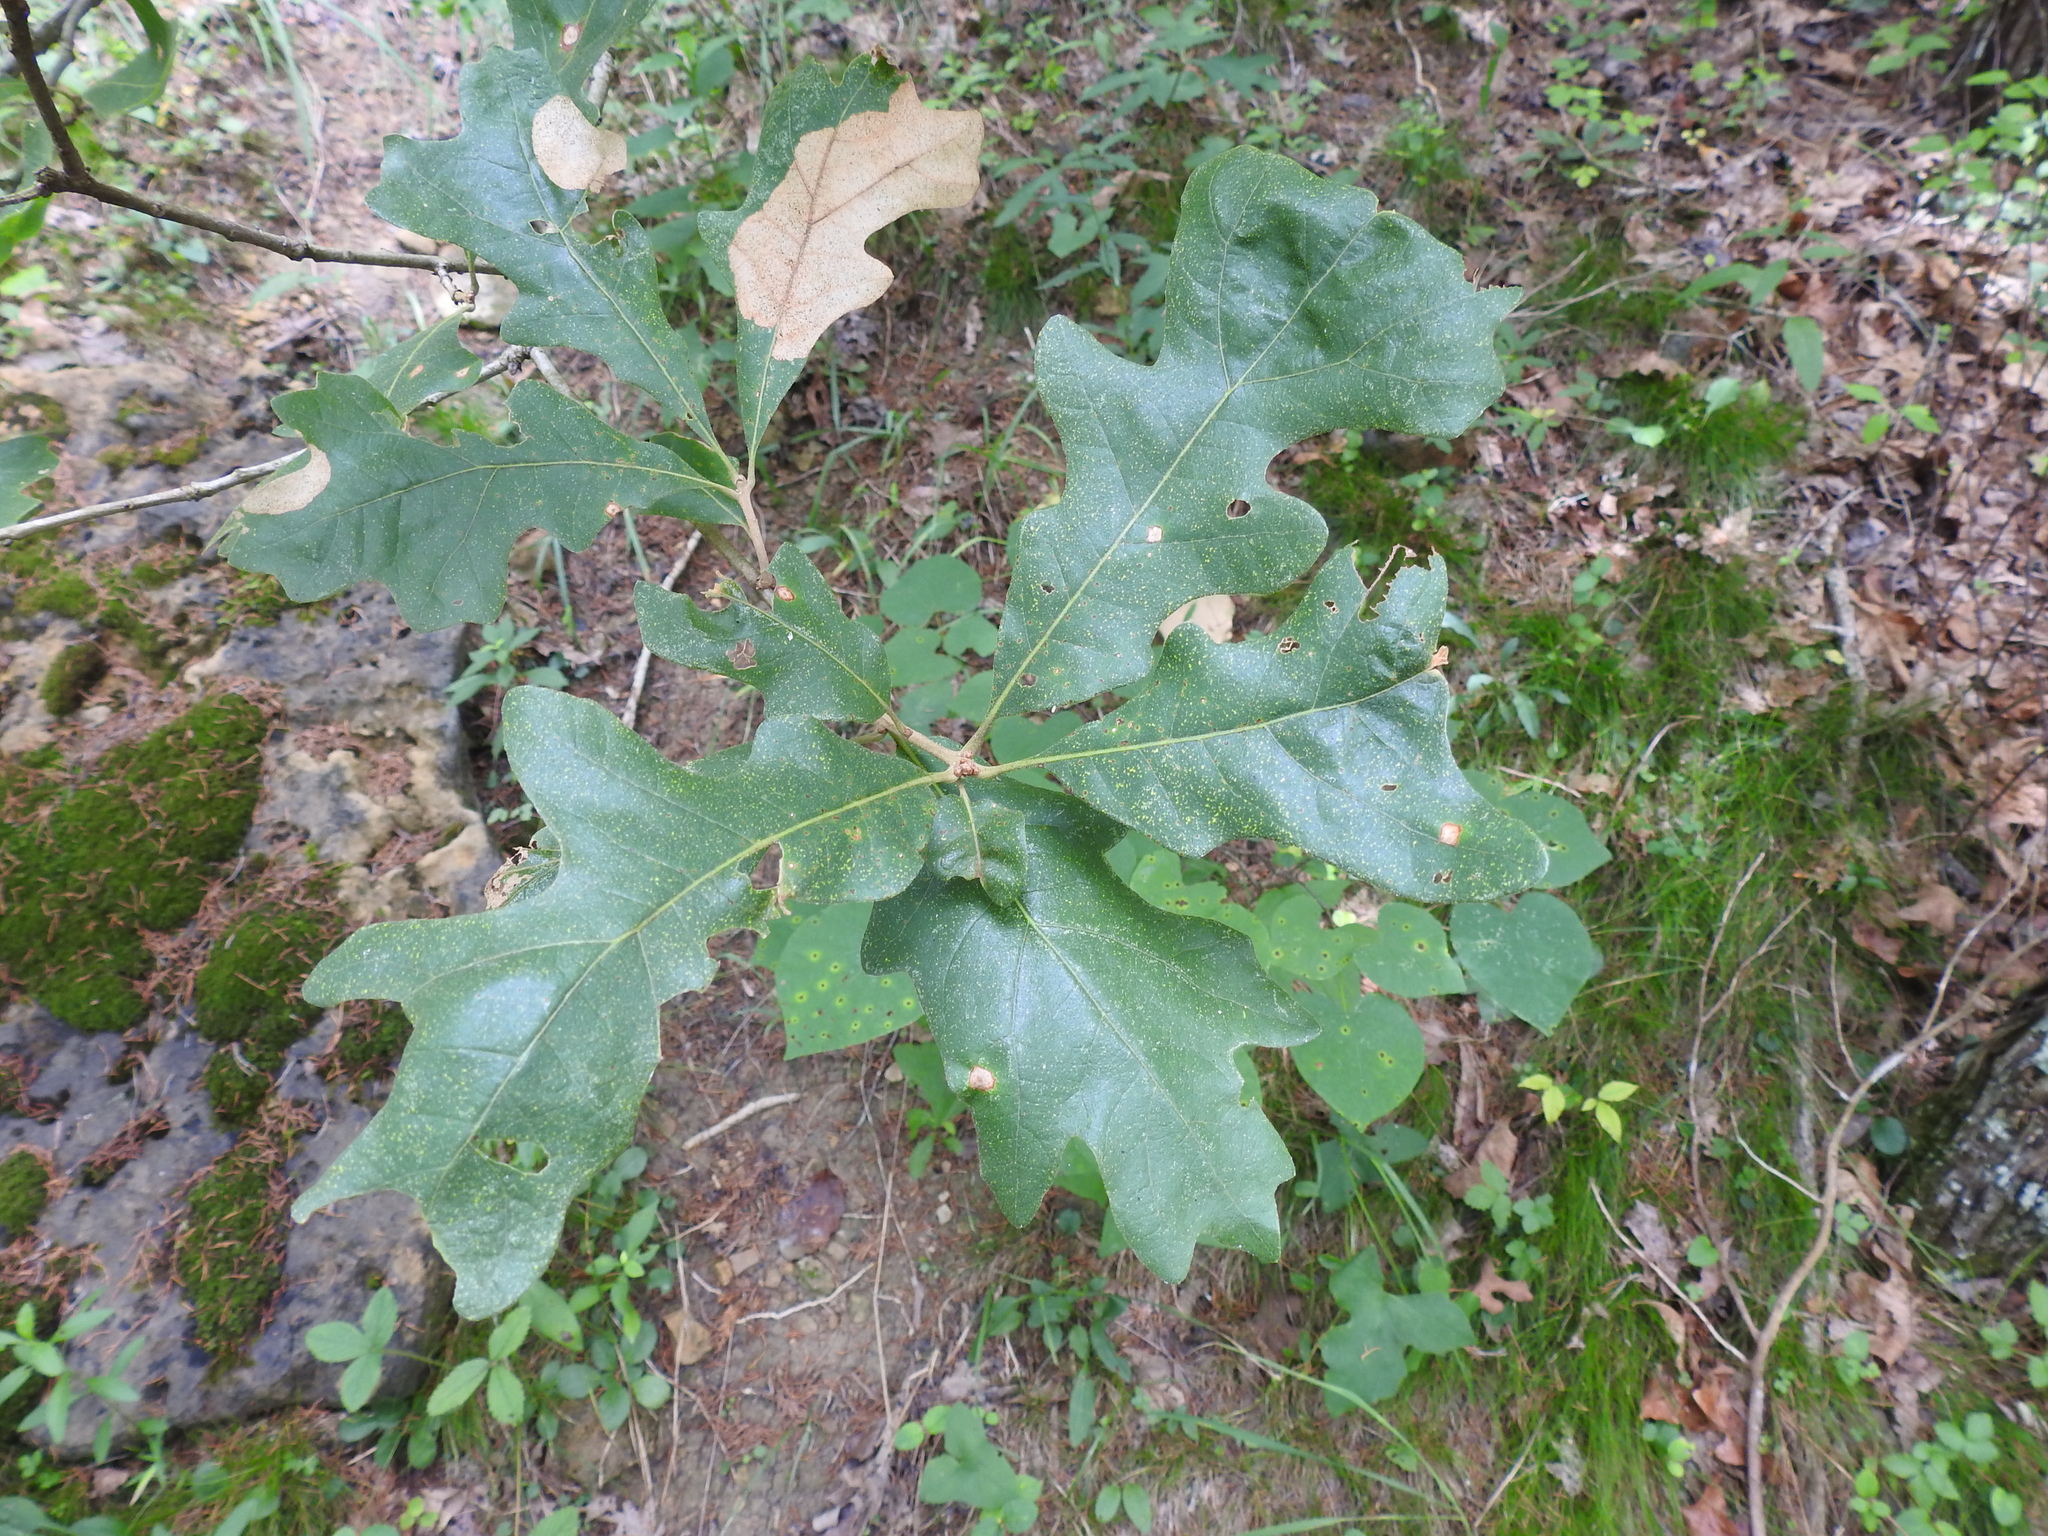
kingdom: Plantae
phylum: Tracheophyta
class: Magnoliopsida
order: Fagales
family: Fagaceae
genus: Quercus
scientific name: Quercus stellata
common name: Post oak
